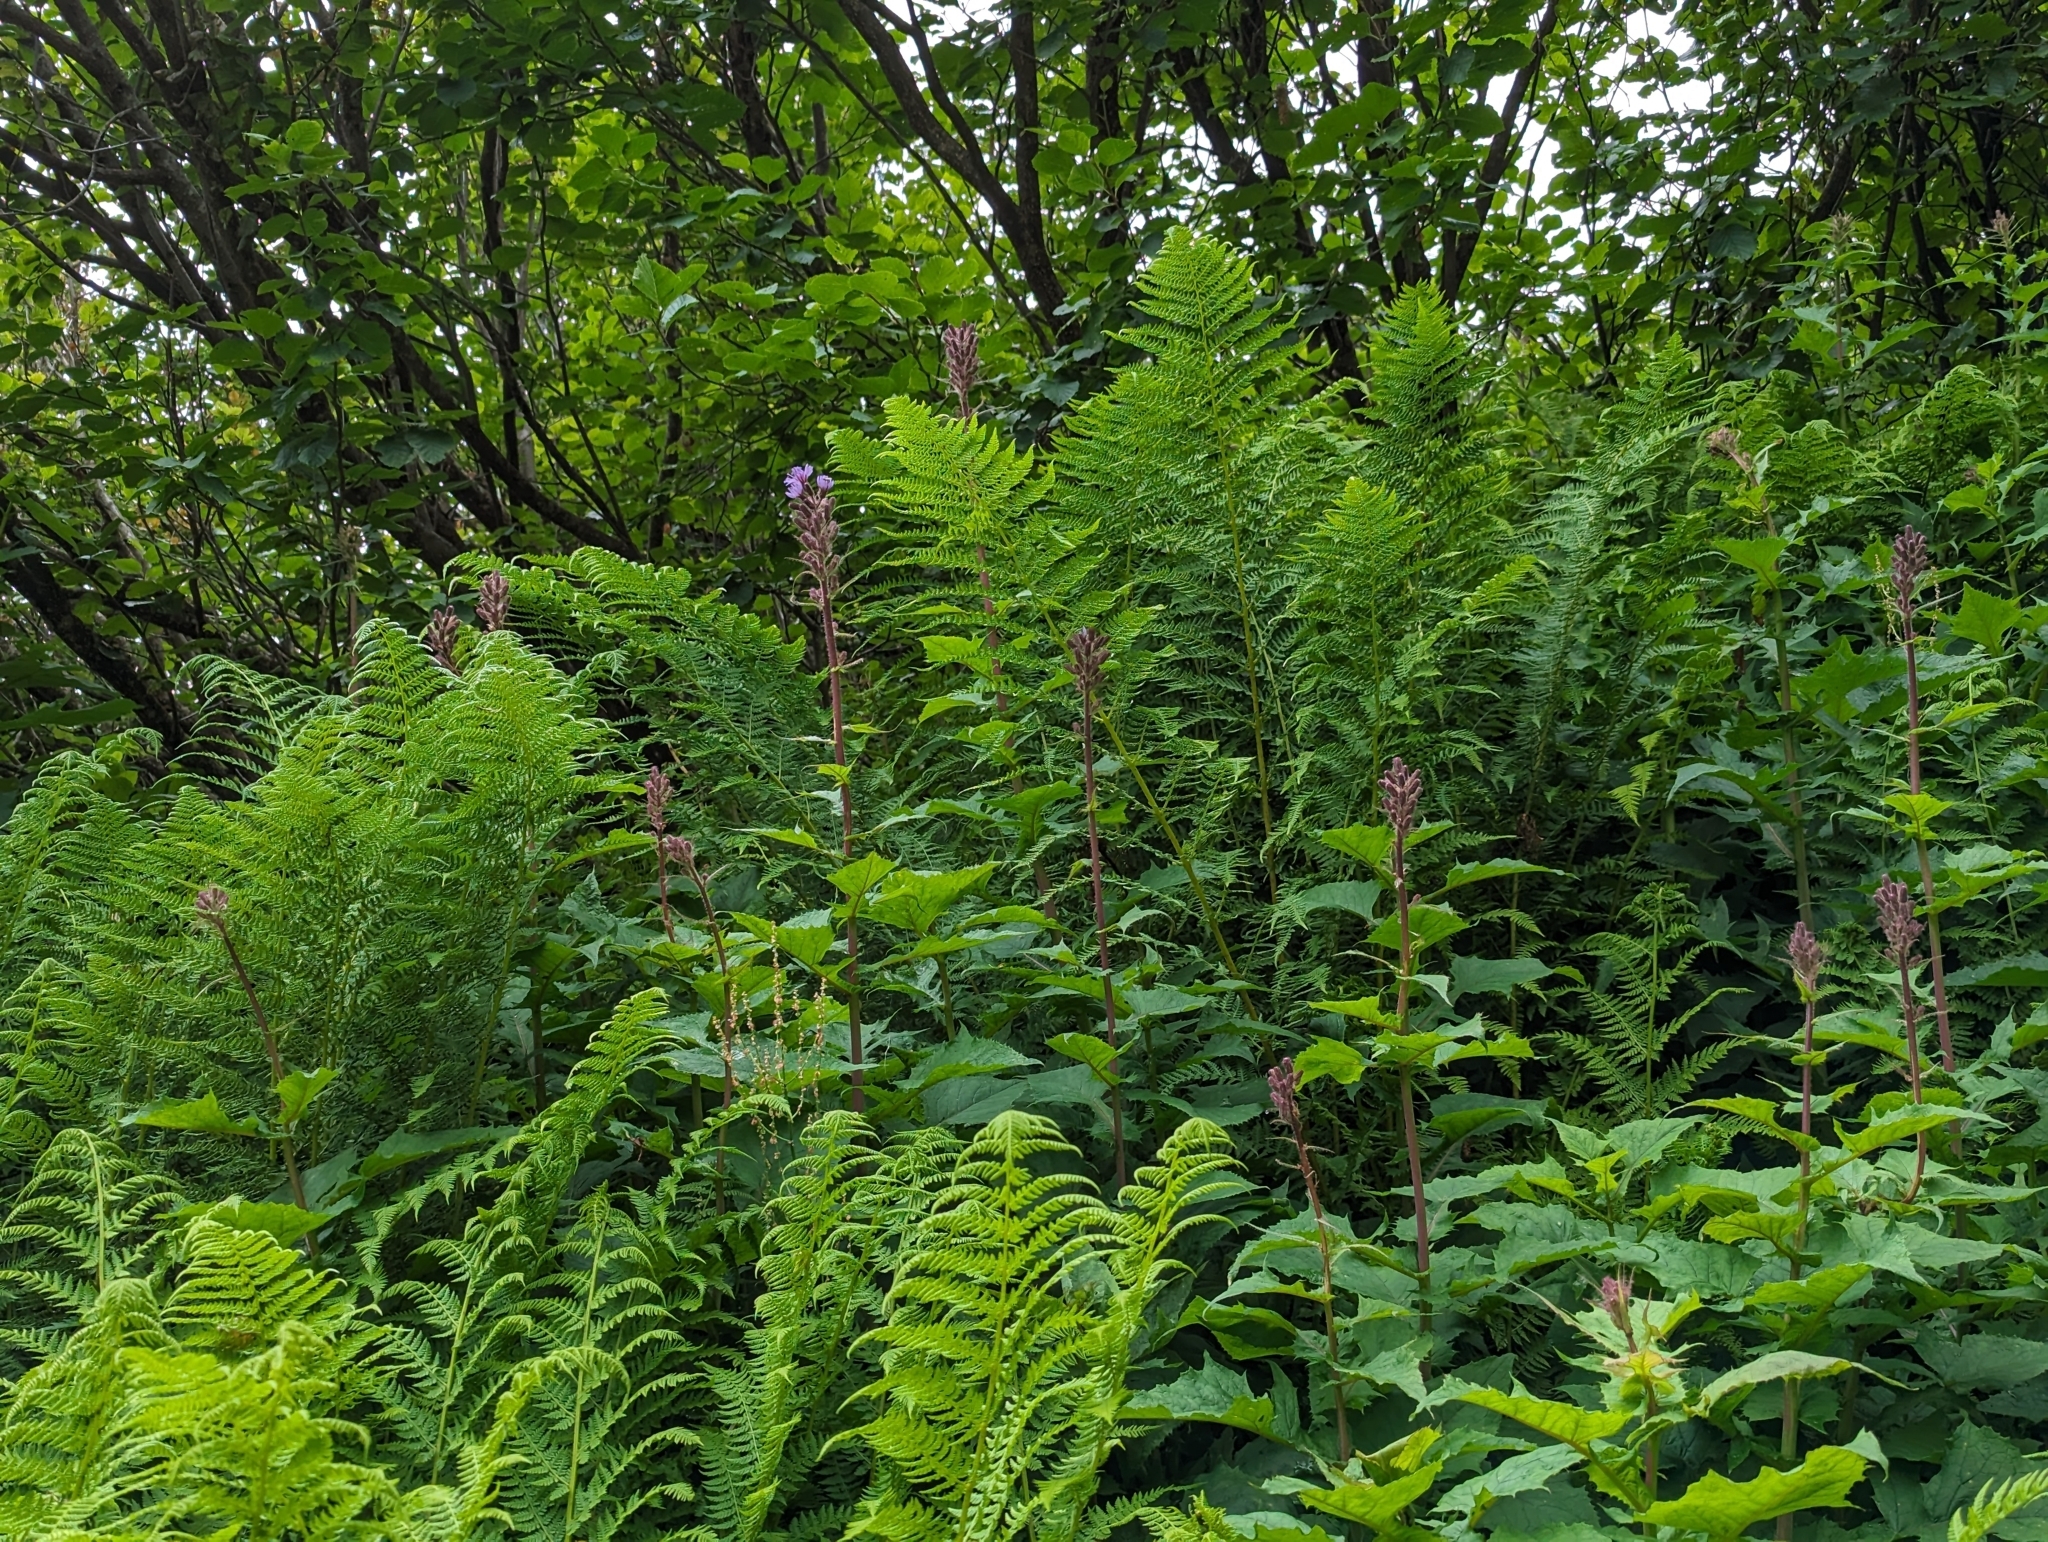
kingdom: Plantae
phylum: Tracheophyta
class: Magnoliopsida
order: Asterales
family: Asteraceae
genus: Cicerbita
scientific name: Cicerbita alpina
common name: Alpine blue-sow-thistle
